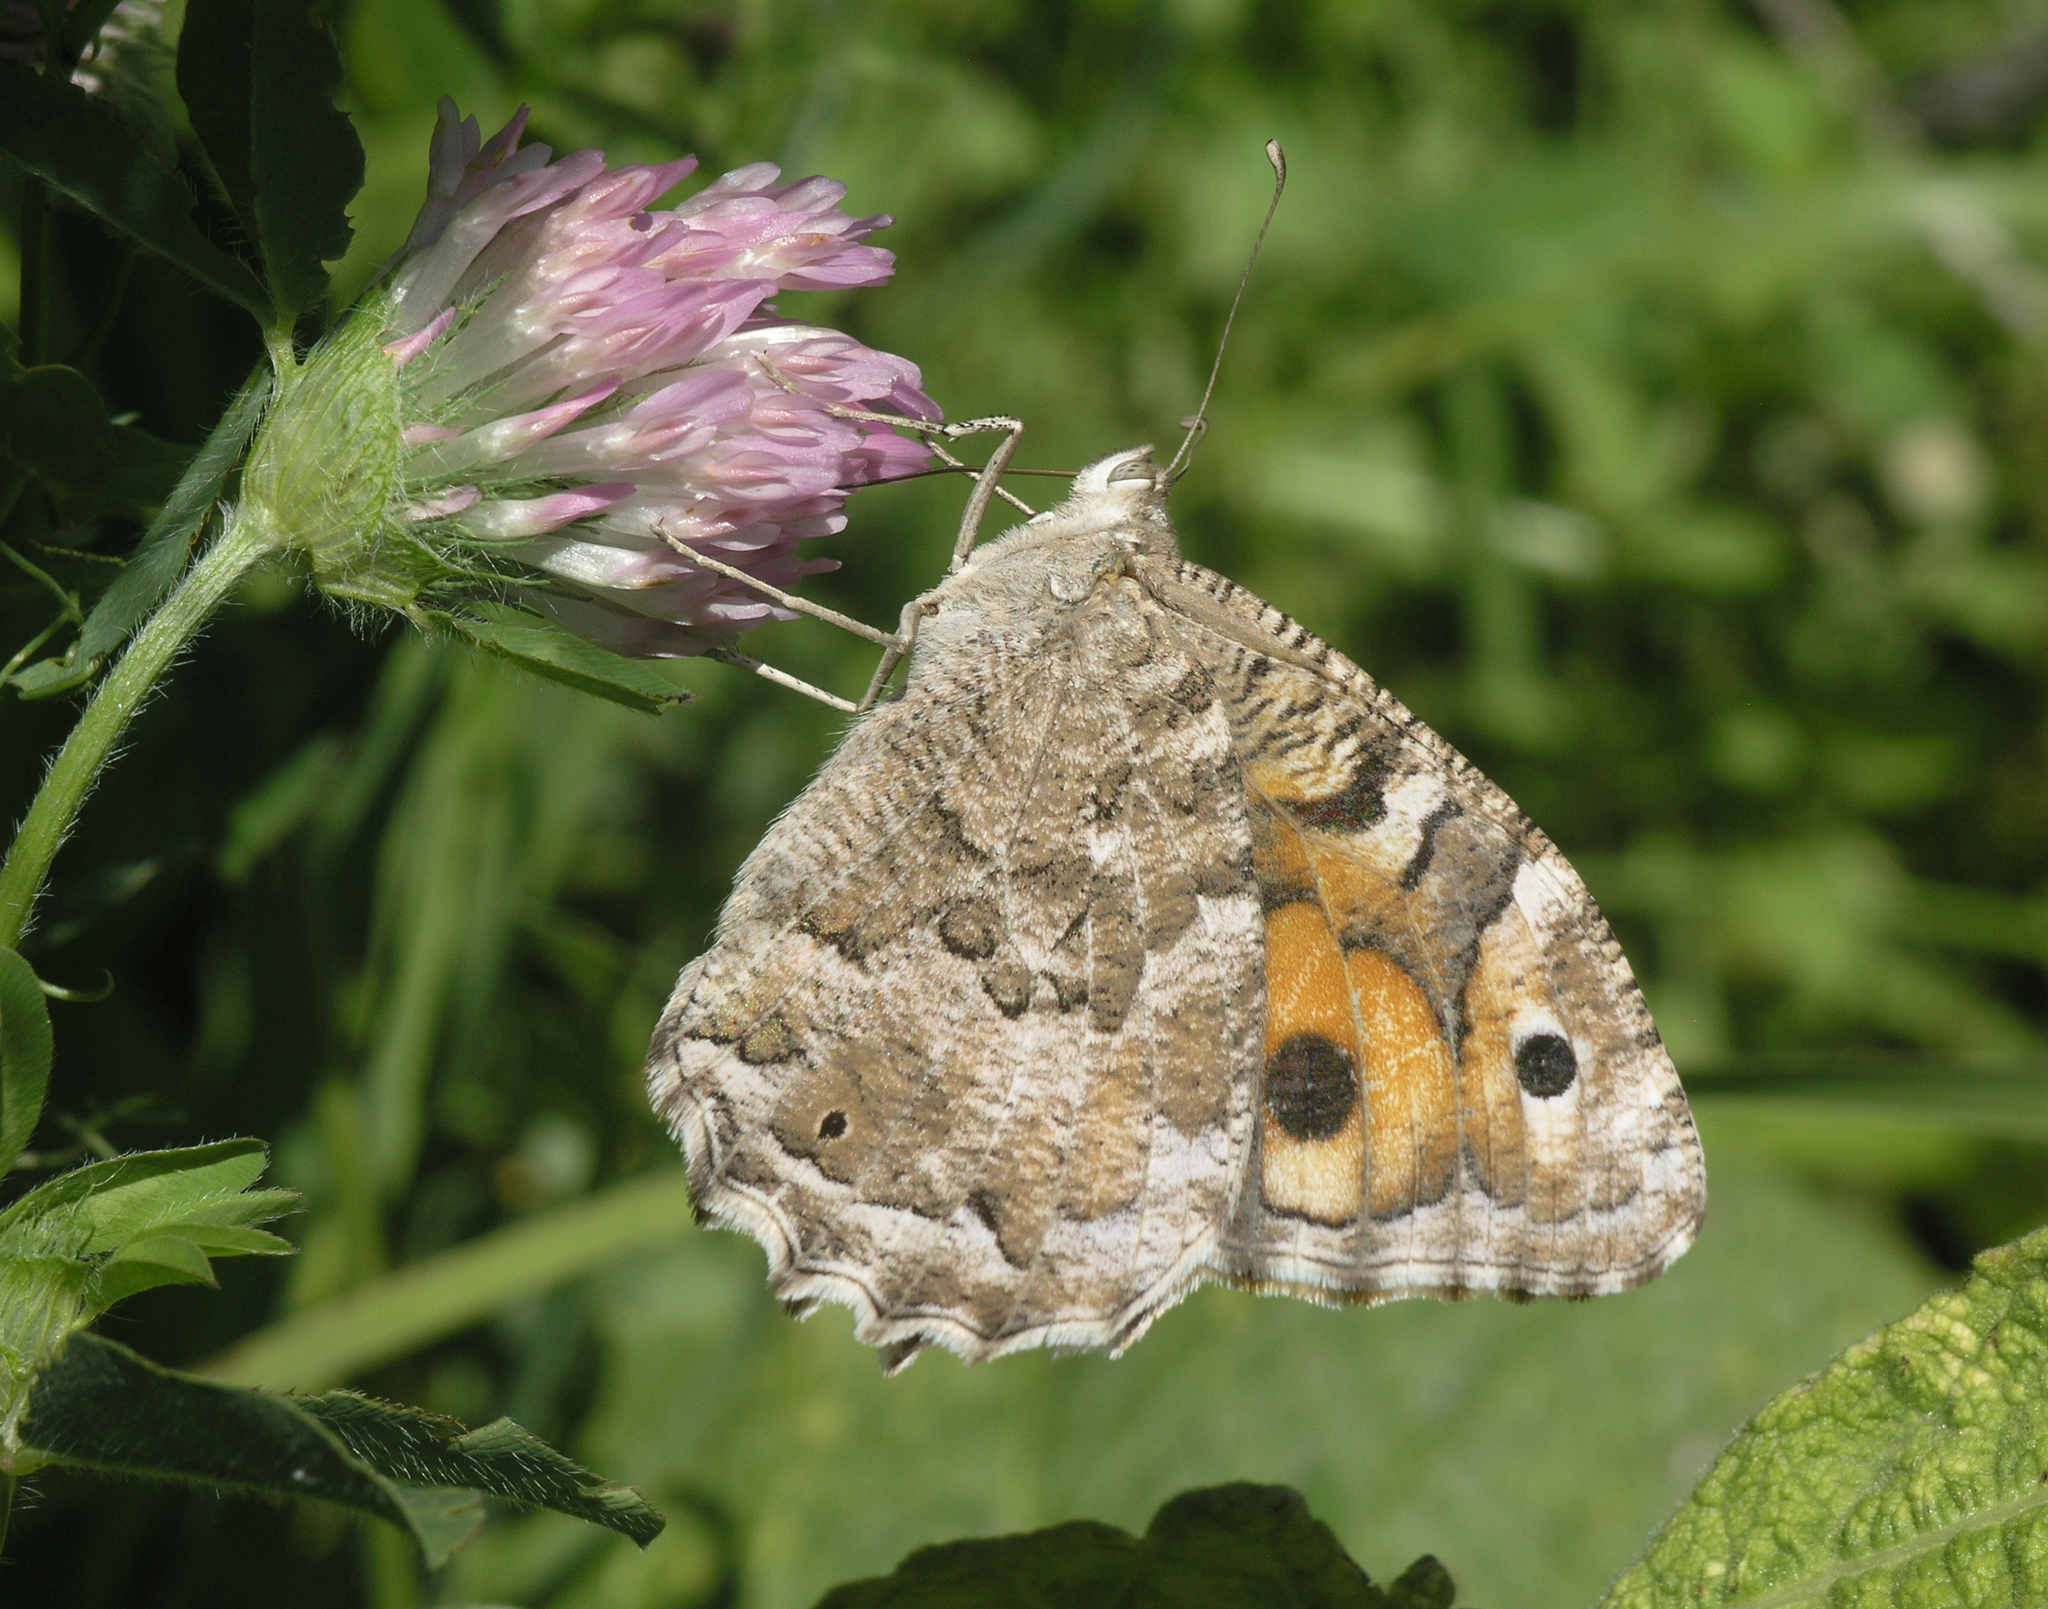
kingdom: Animalia
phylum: Arthropoda
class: Insecta
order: Lepidoptera
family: Nymphalidae
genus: Satyrus
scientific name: Satyrus Chazara enervata
